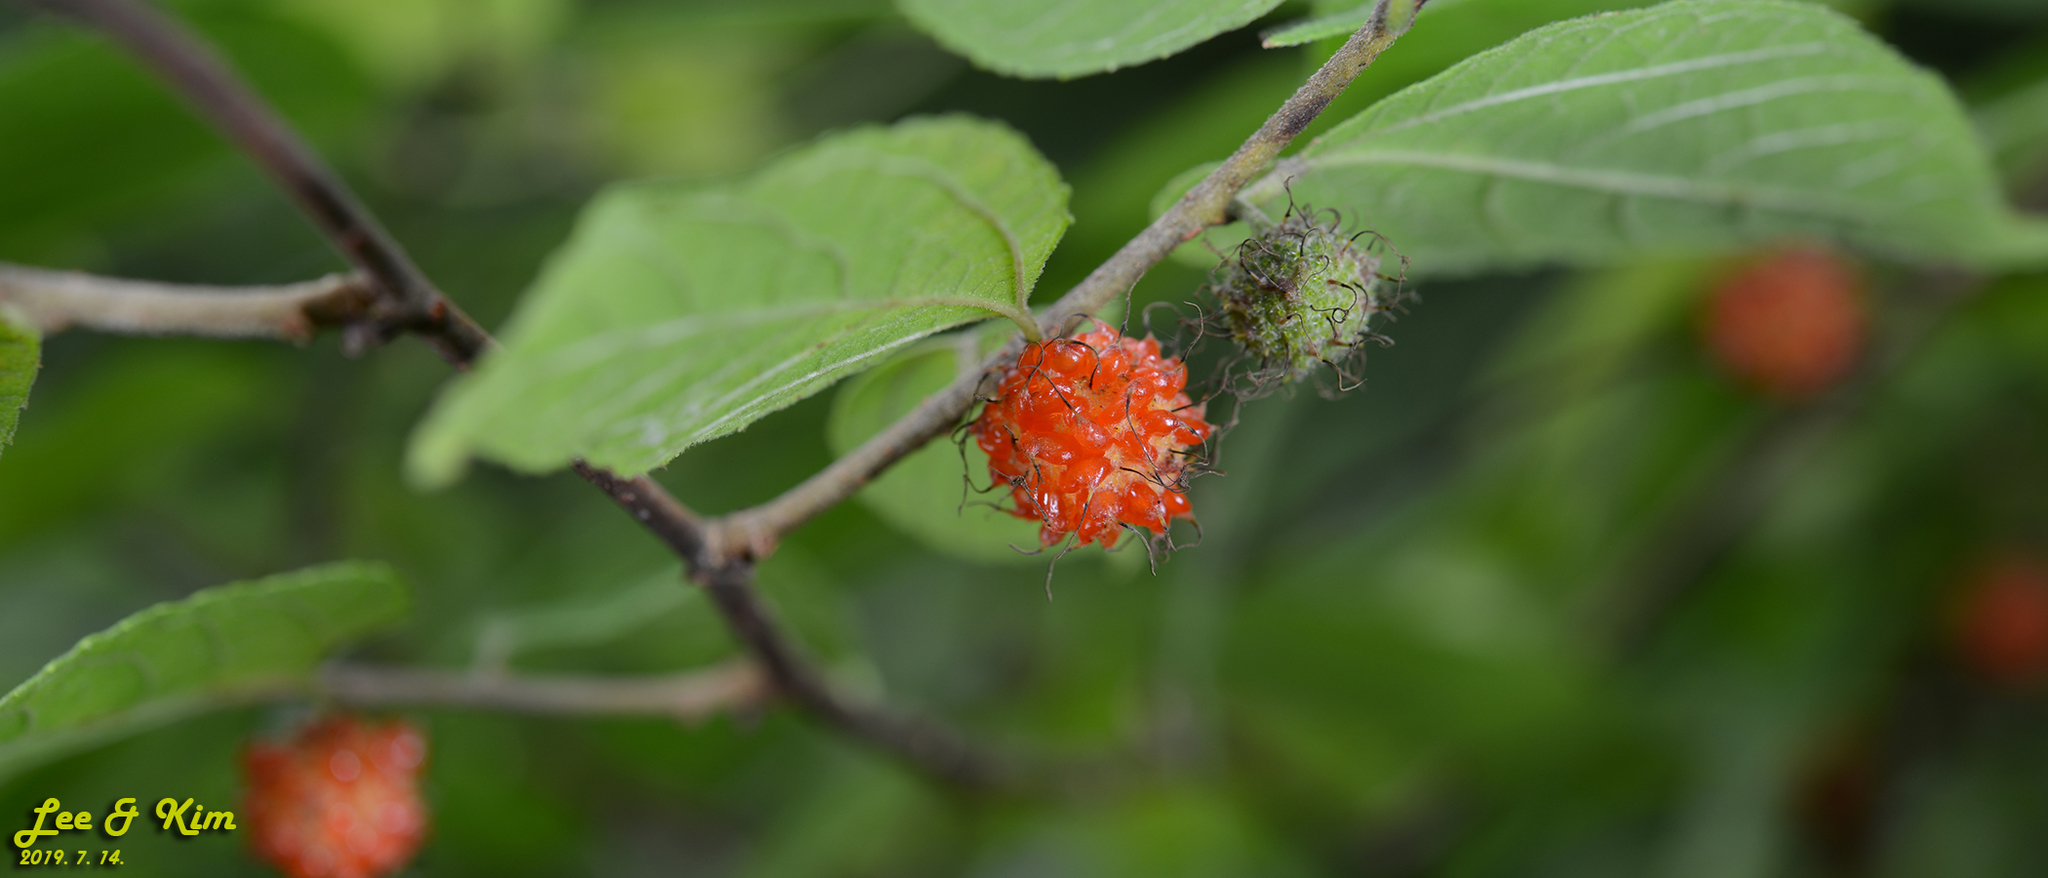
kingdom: Plantae
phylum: Tracheophyta
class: Magnoliopsida
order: Rosales
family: Moraceae
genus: Broussonetia
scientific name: Broussonetia papyrifera
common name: Paper mulberry
